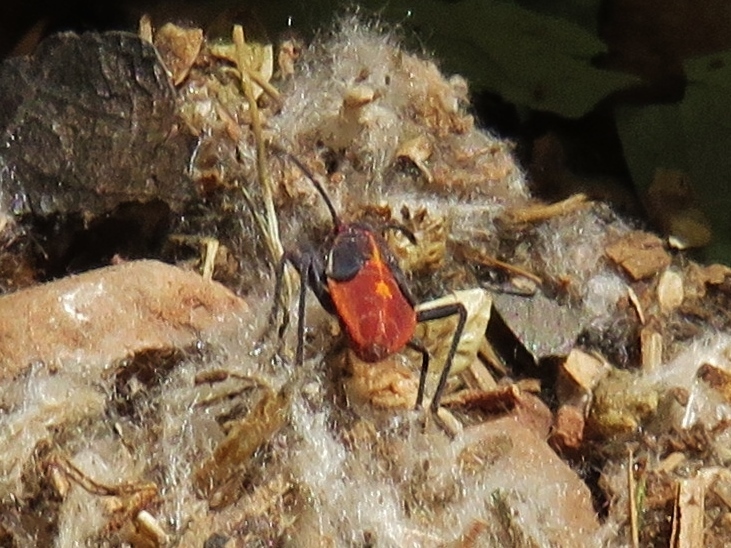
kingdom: Animalia
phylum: Arthropoda
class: Insecta
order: Hemiptera
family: Rhopalidae
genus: Boisea
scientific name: Boisea trivittata
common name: Boxelder bug
